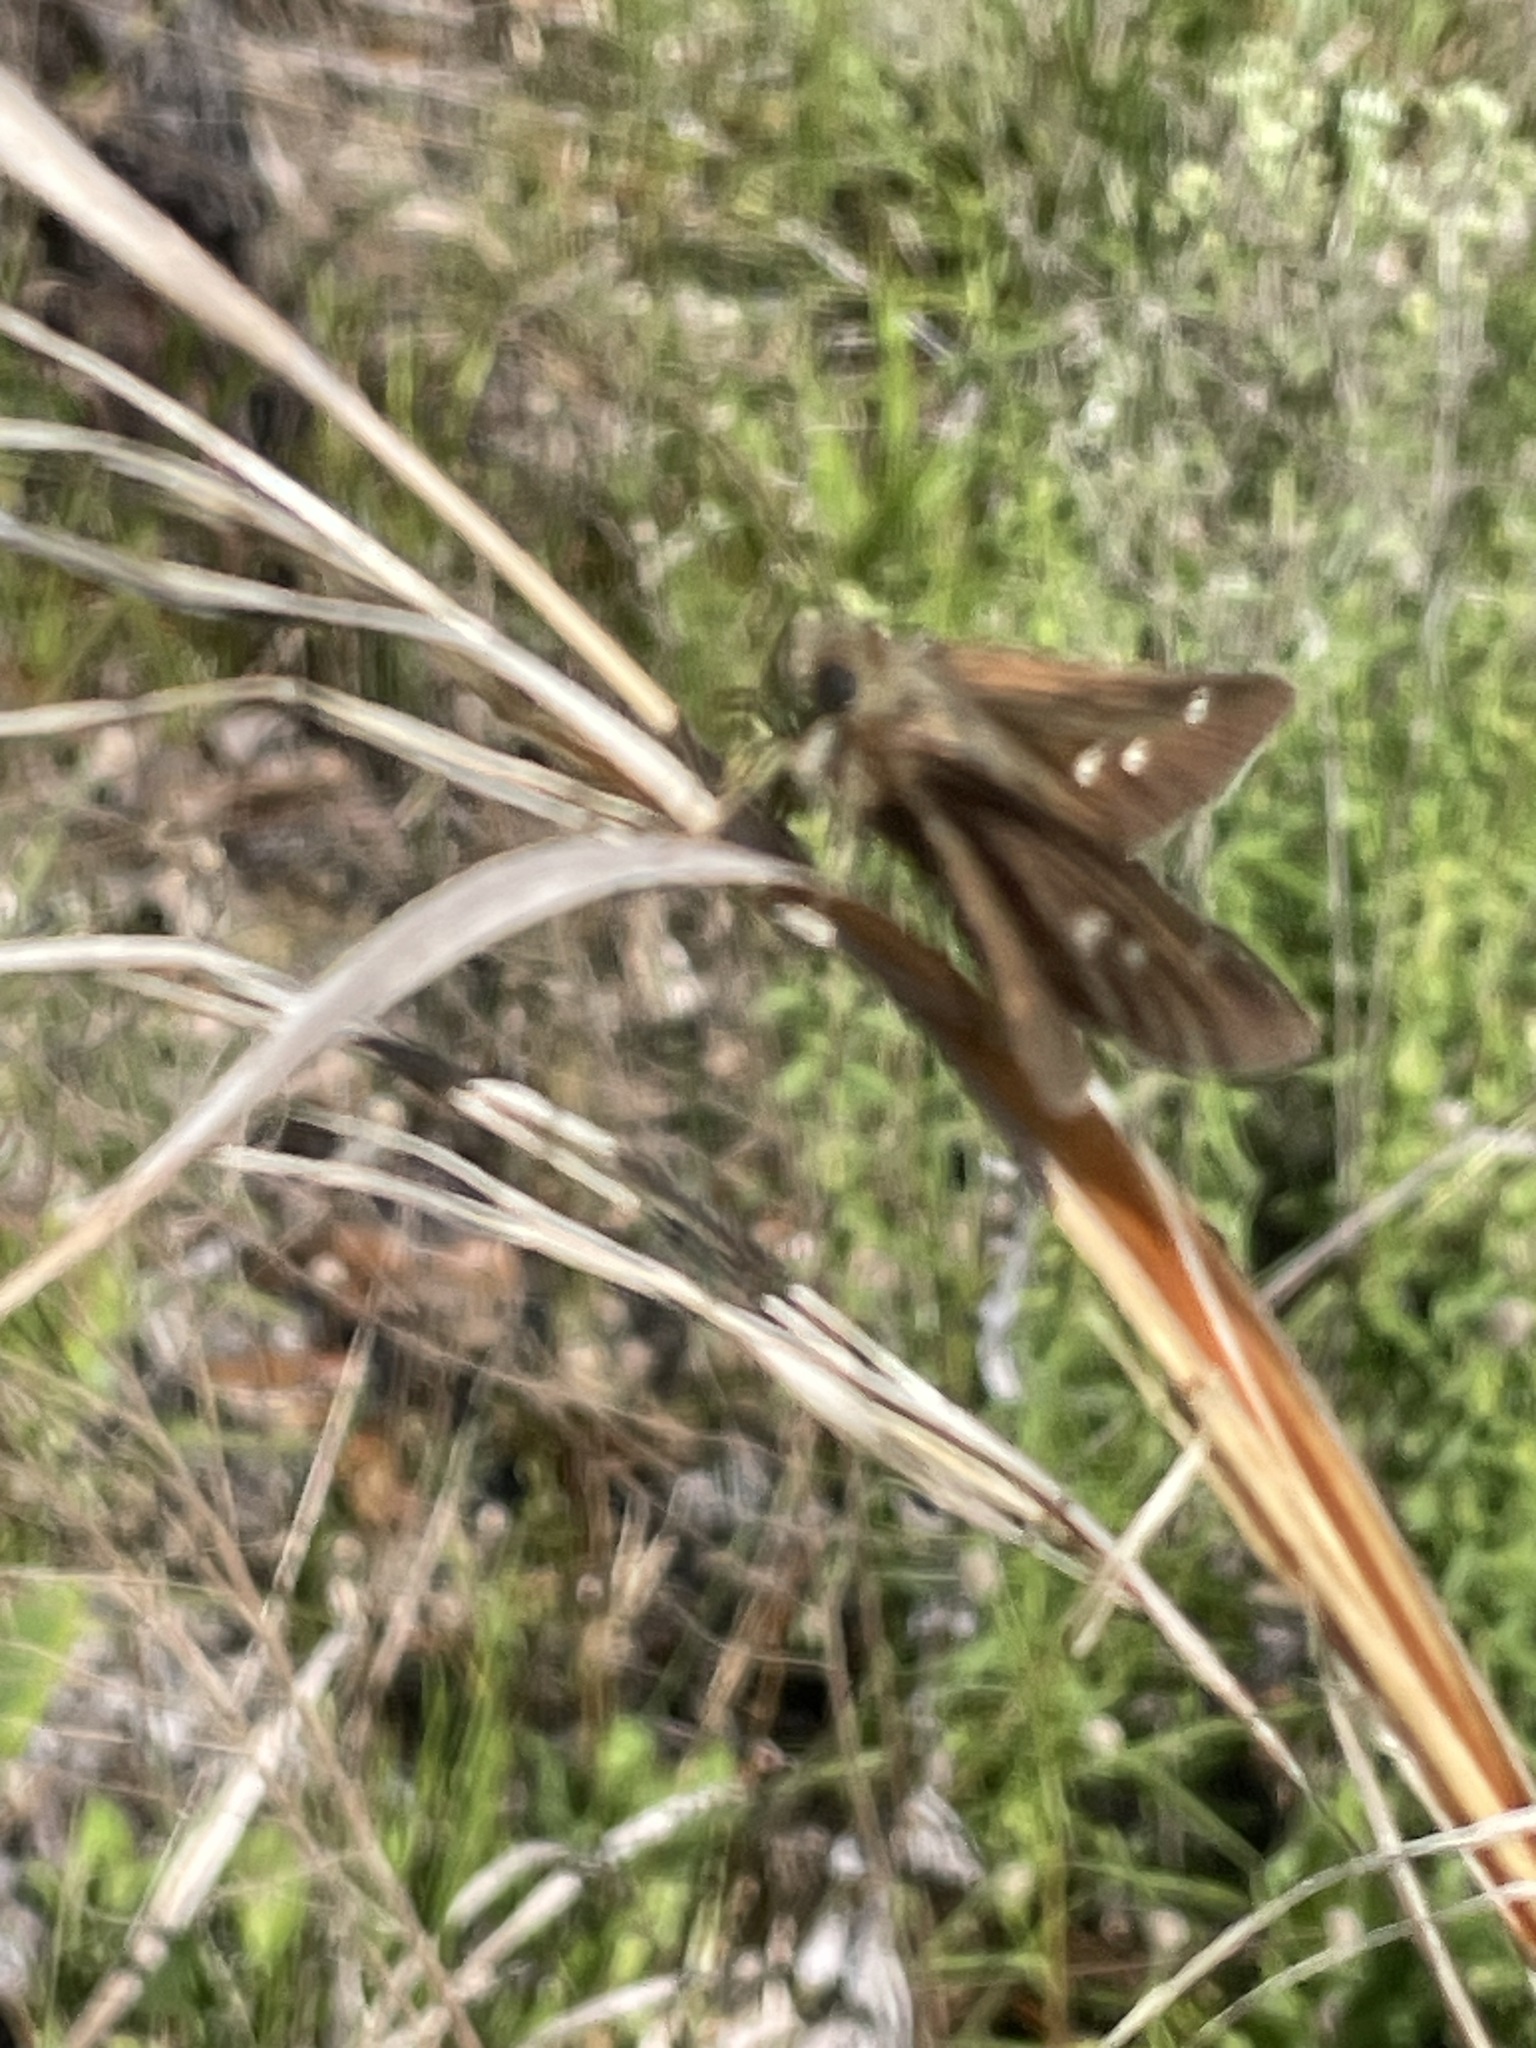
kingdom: Animalia
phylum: Arthropoda
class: Insecta
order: Lepidoptera
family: Hesperiidae
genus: Oligoria
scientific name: Oligoria maculata
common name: Twin-spot skipper
